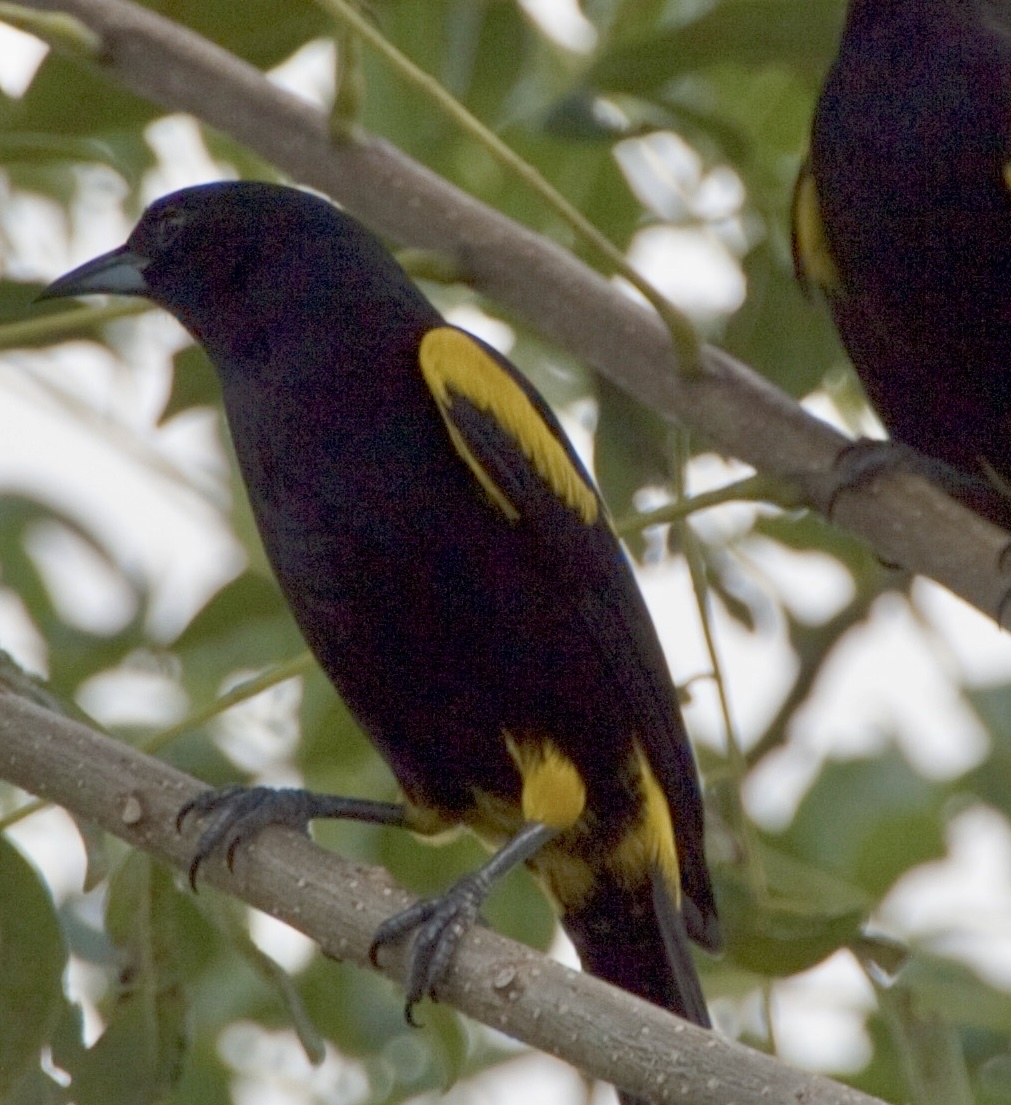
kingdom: Animalia
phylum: Chordata
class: Aves
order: Passeriformes
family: Icteridae
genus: Icterus
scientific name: Icterus dominicensis
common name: Hispaniolan oriole
